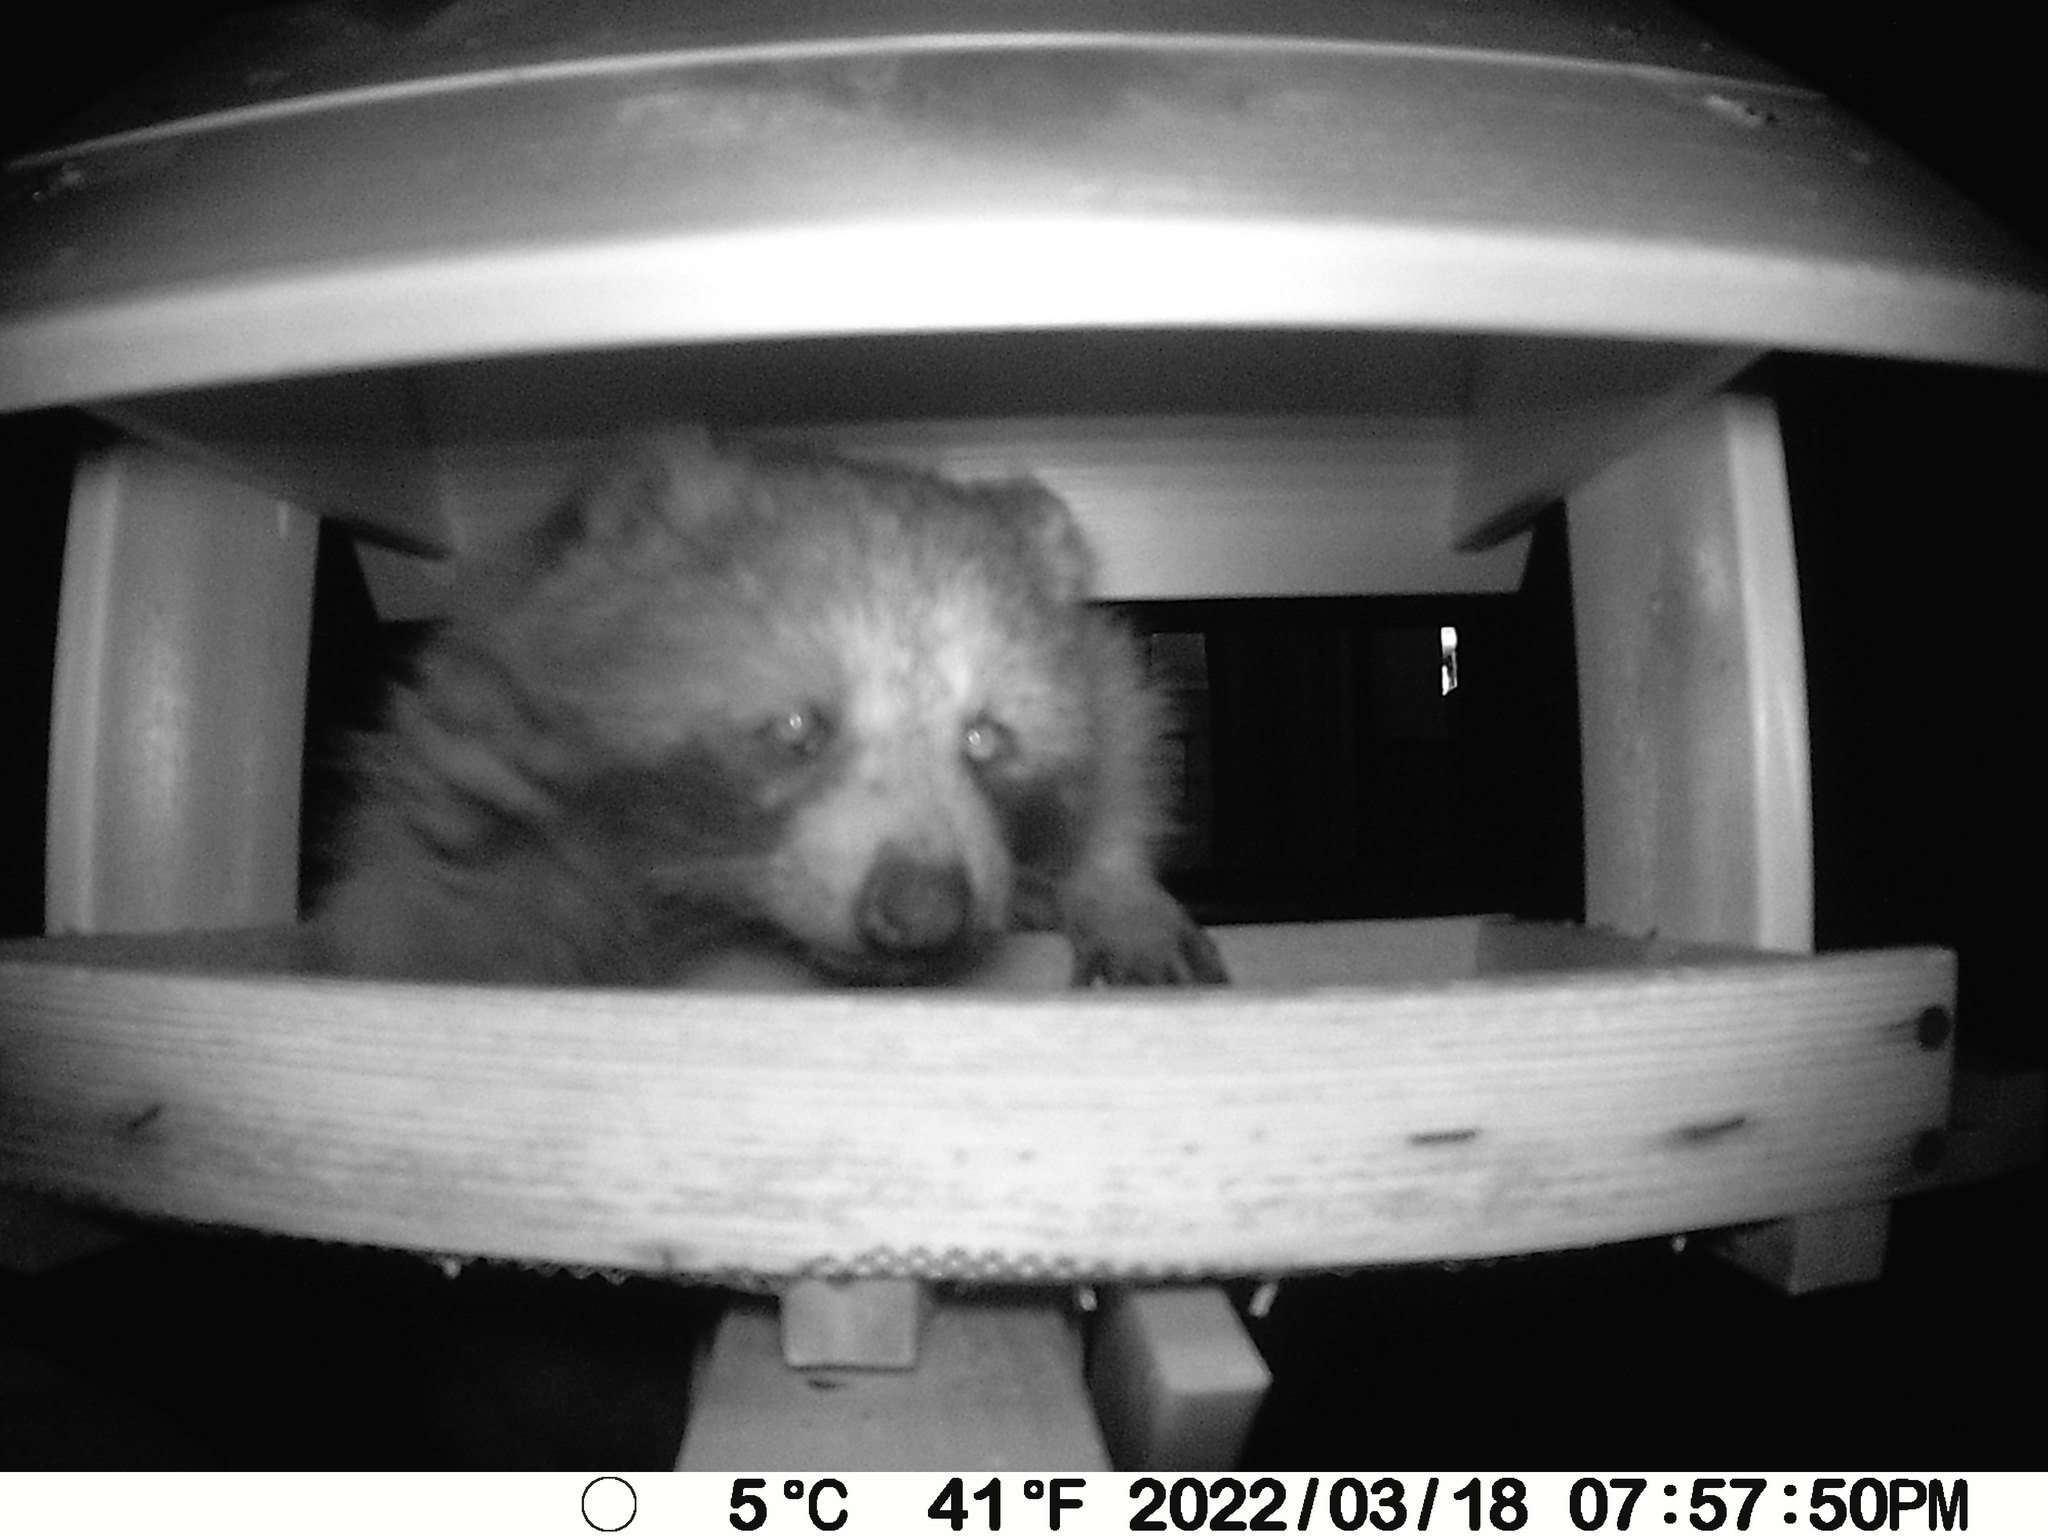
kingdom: Animalia
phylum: Chordata
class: Mammalia
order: Carnivora
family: Procyonidae
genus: Procyon
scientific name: Procyon lotor
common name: Raccoon
